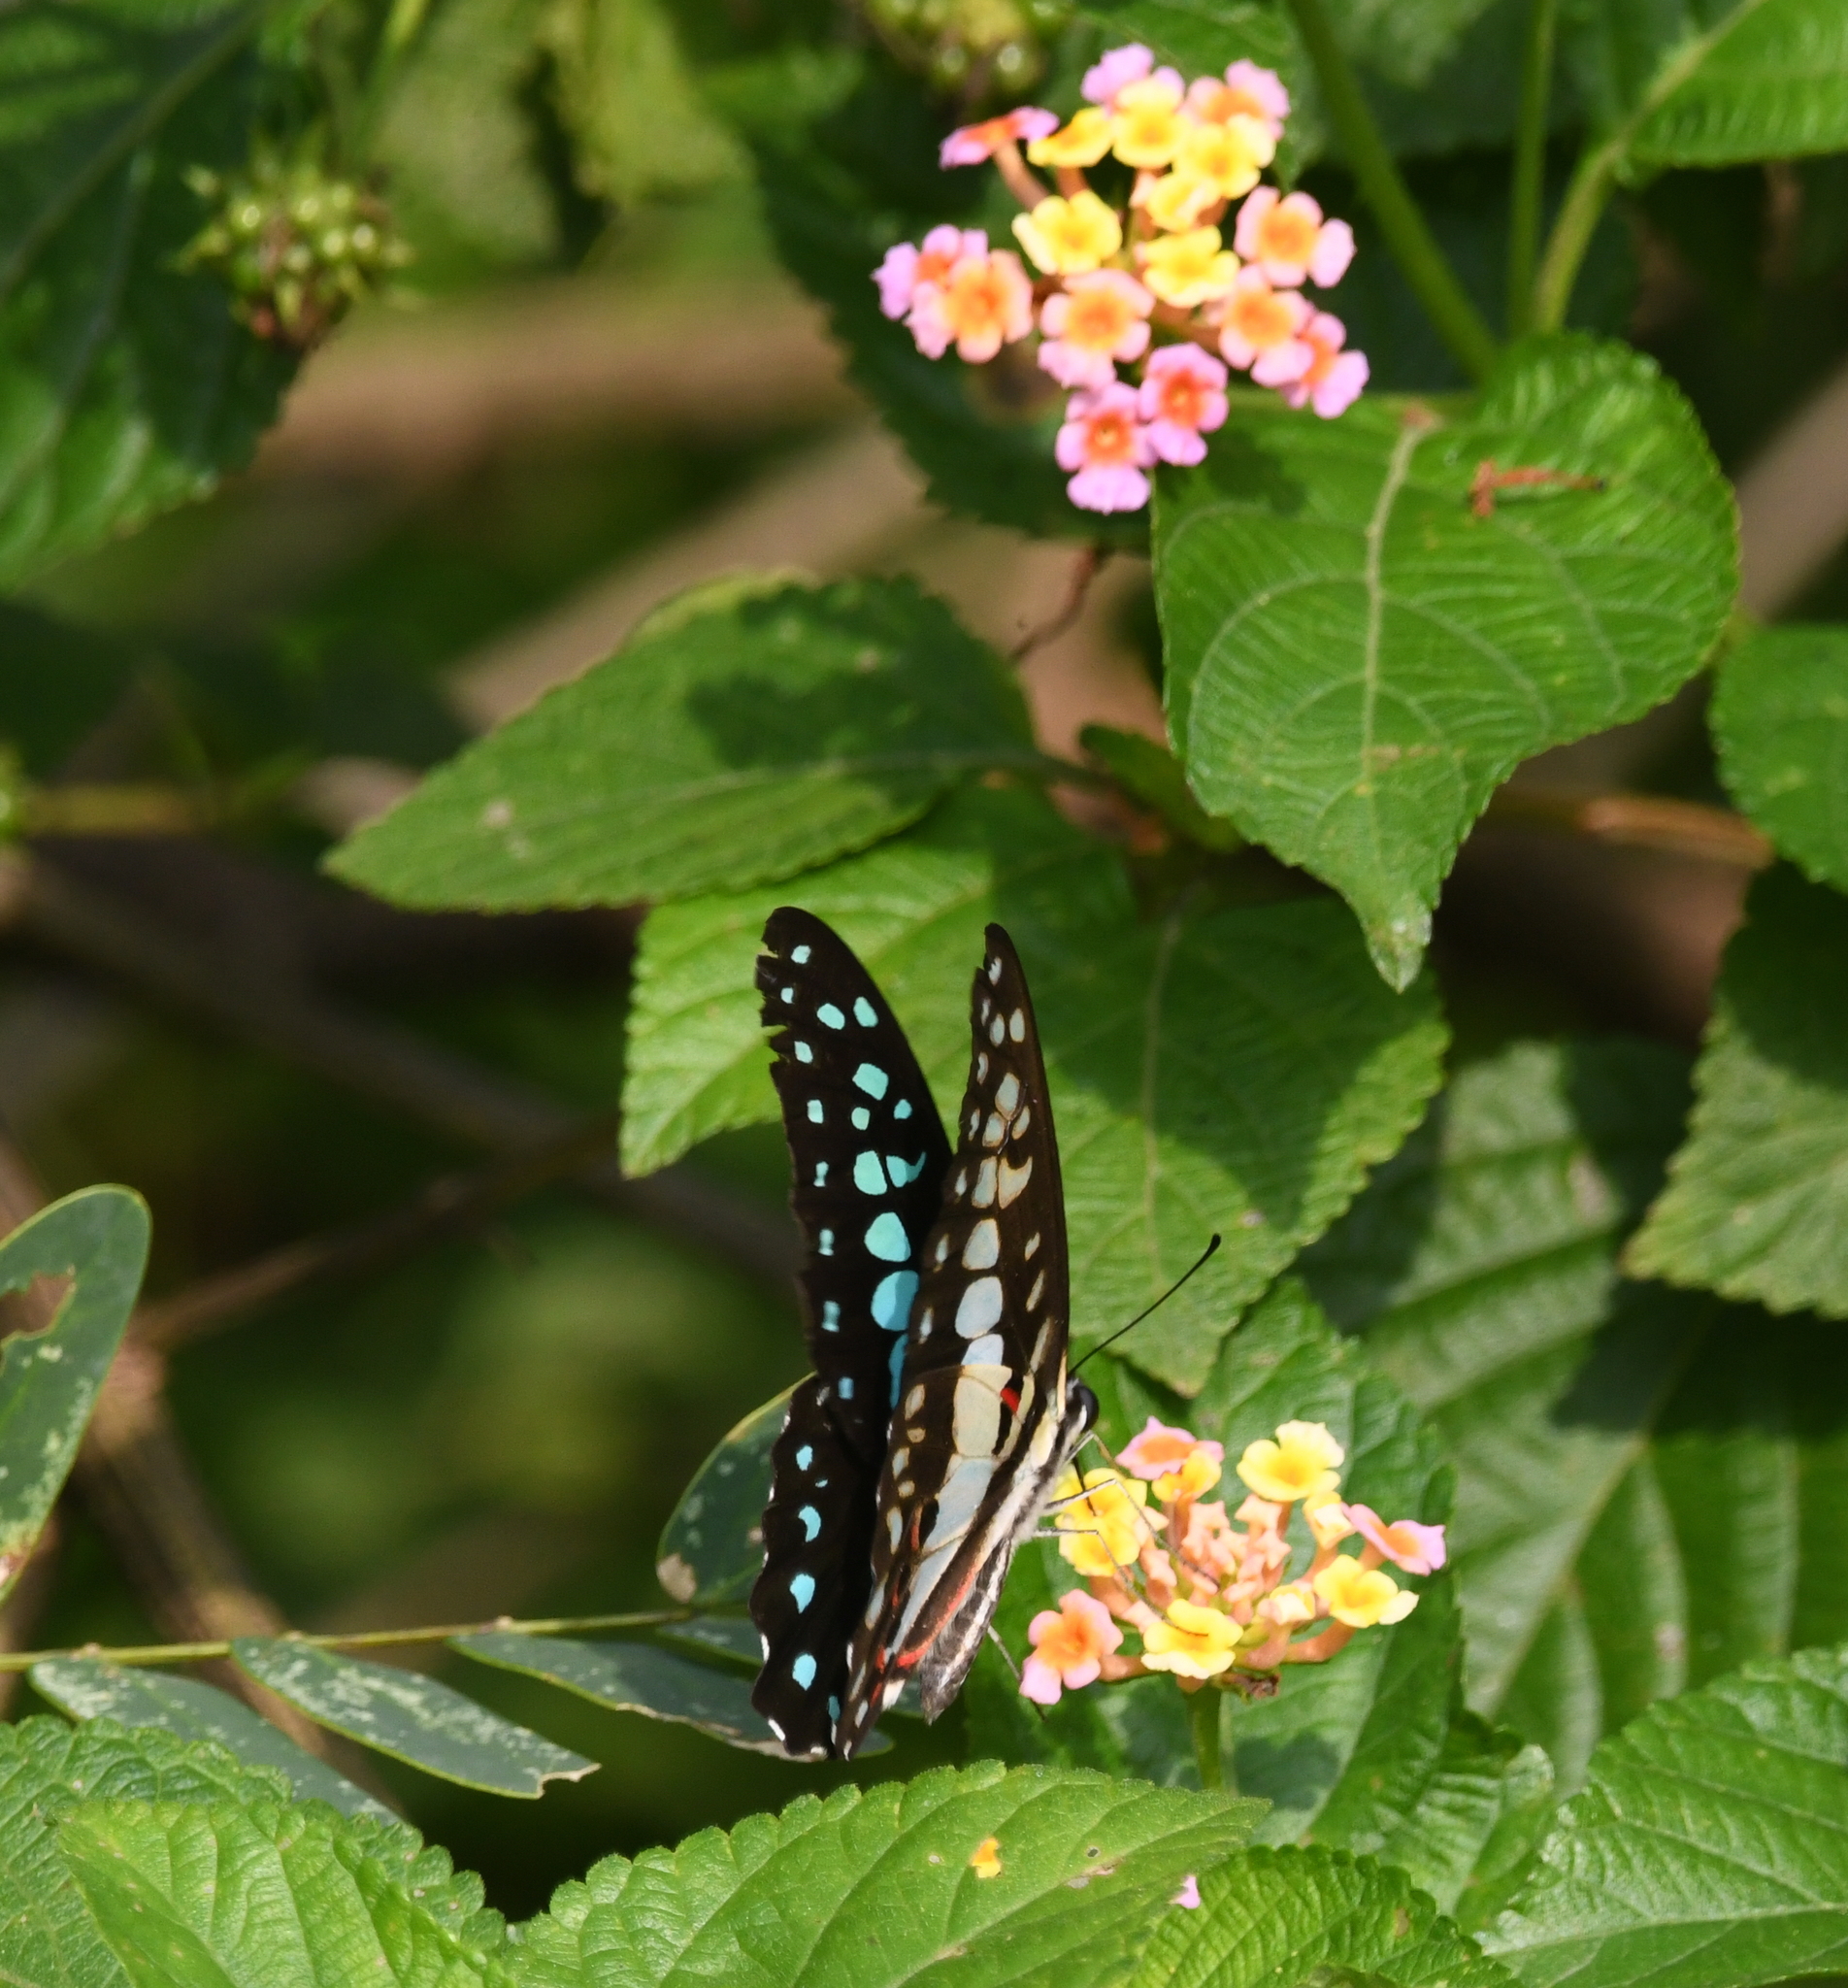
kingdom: Animalia
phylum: Arthropoda
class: Insecta
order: Lepidoptera
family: Papilionidae
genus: Graphium
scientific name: Graphium doson
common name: Common jay
